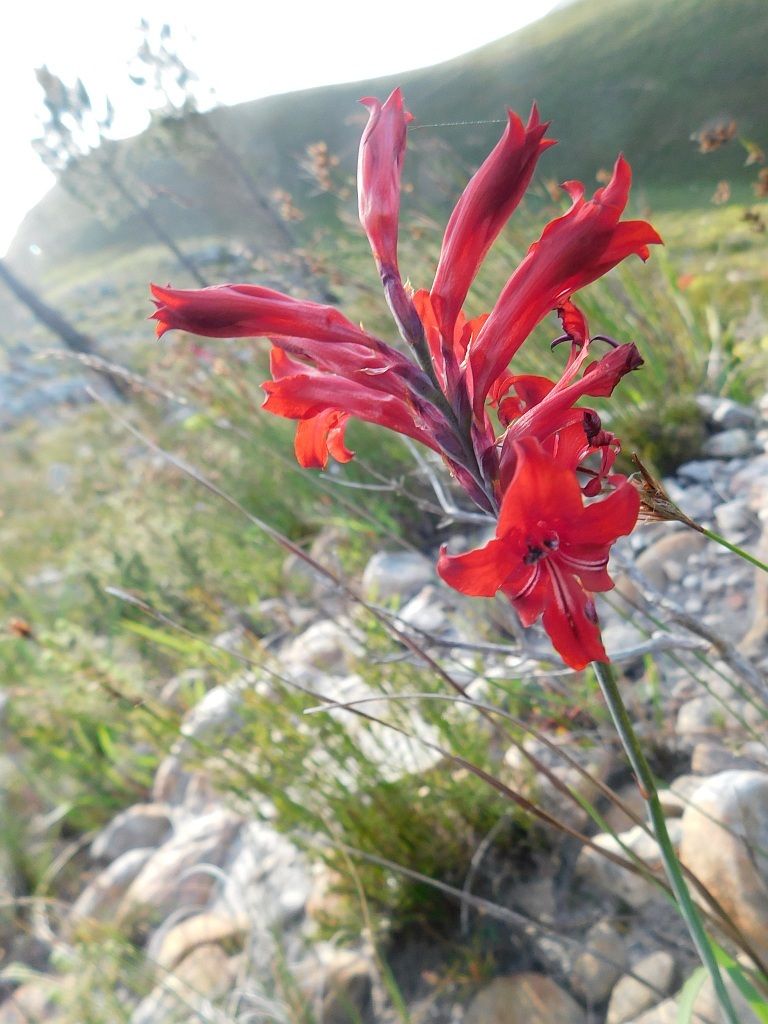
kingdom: Plantae
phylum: Tracheophyta
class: Liliopsida
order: Asparagales
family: Iridaceae
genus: Tritoniopsis
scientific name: Tritoniopsis pulchra
